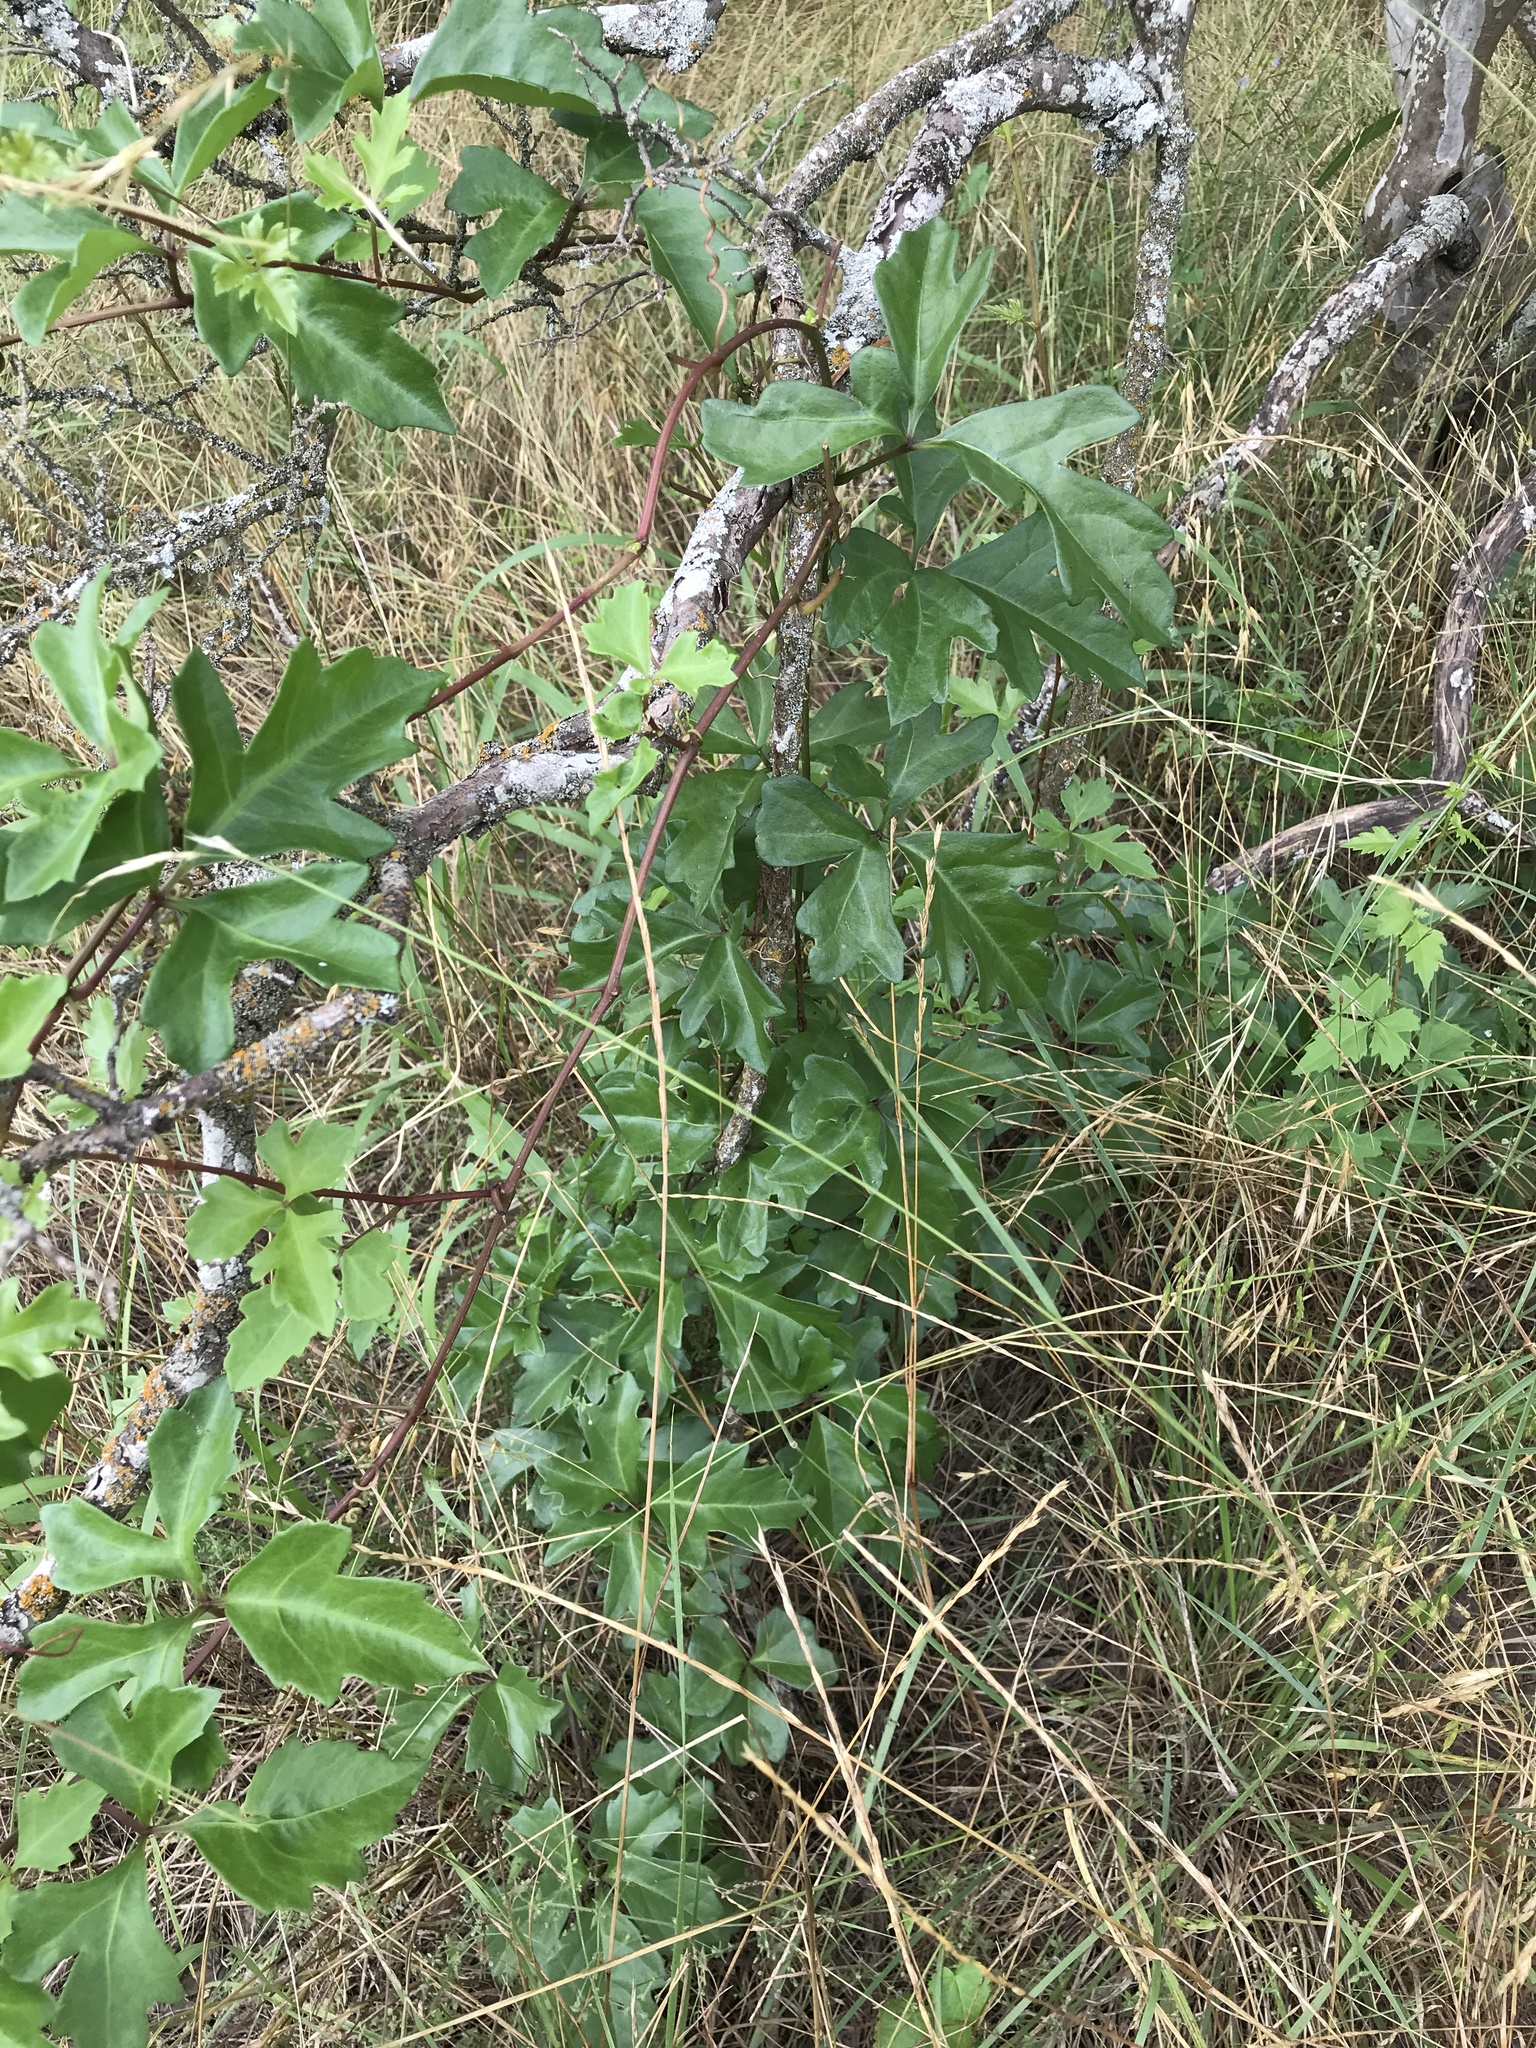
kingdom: Plantae
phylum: Tracheophyta
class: Magnoliopsida
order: Vitales
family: Vitaceae
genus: Cissus
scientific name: Cissus trifoliata
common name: Vine-sorrel
